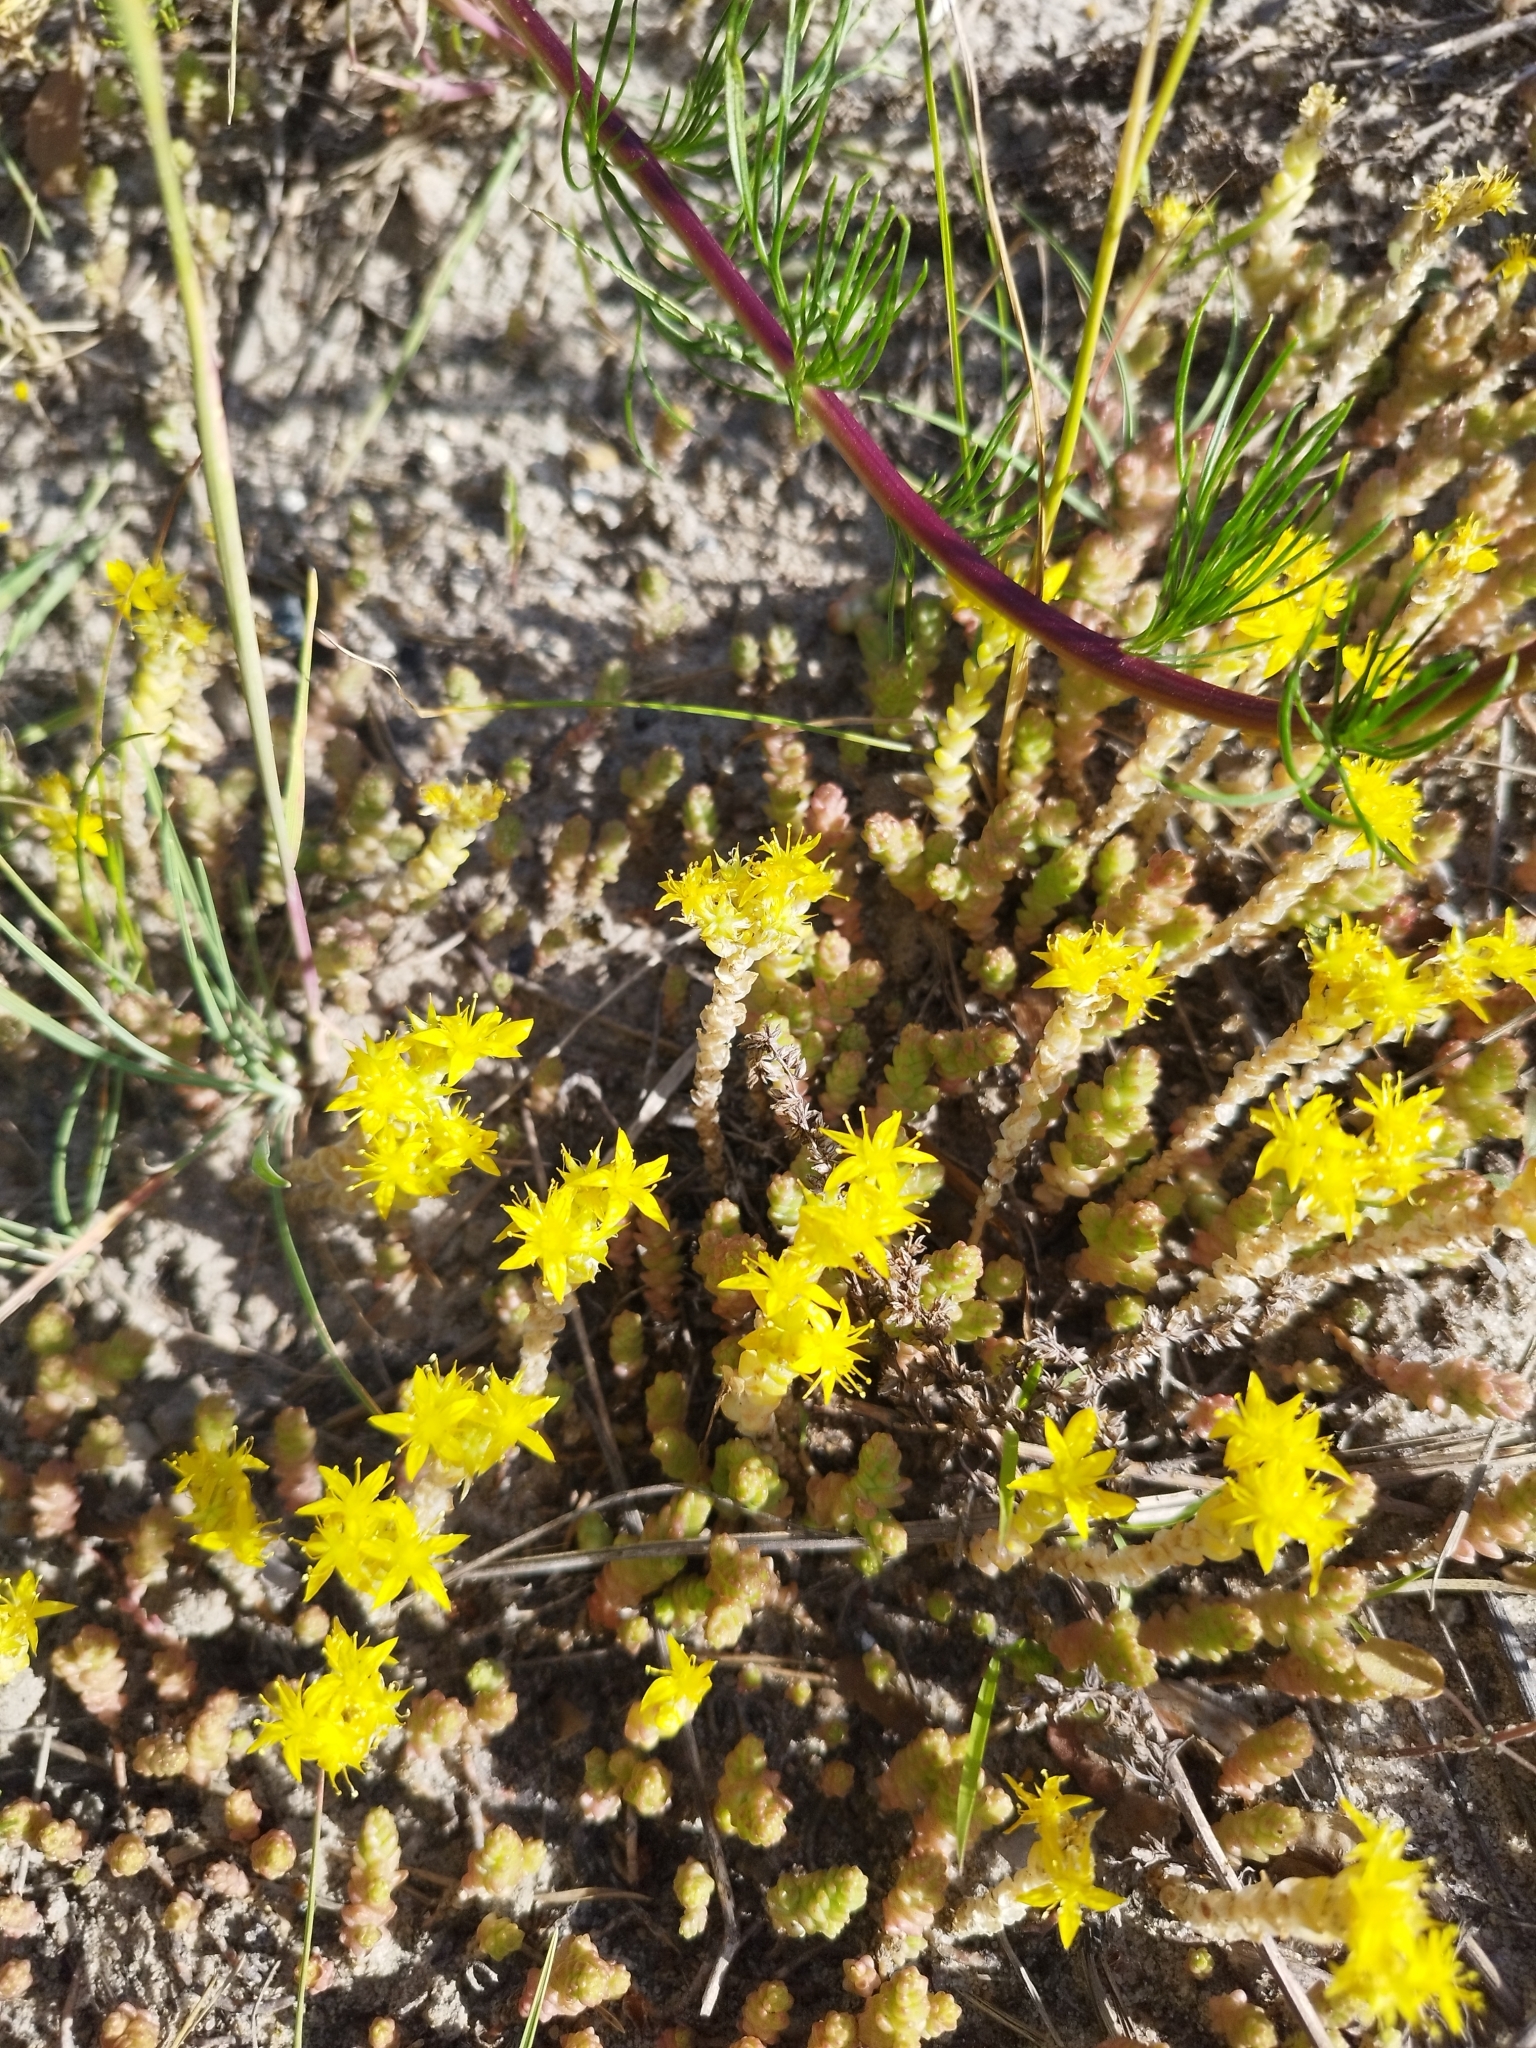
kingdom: Plantae
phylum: Tracheophyta
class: Magnoliopsida
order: Saxifragales
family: Crassulaceae
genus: Sedum
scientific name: Sedum acre
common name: Biting stonecrop
